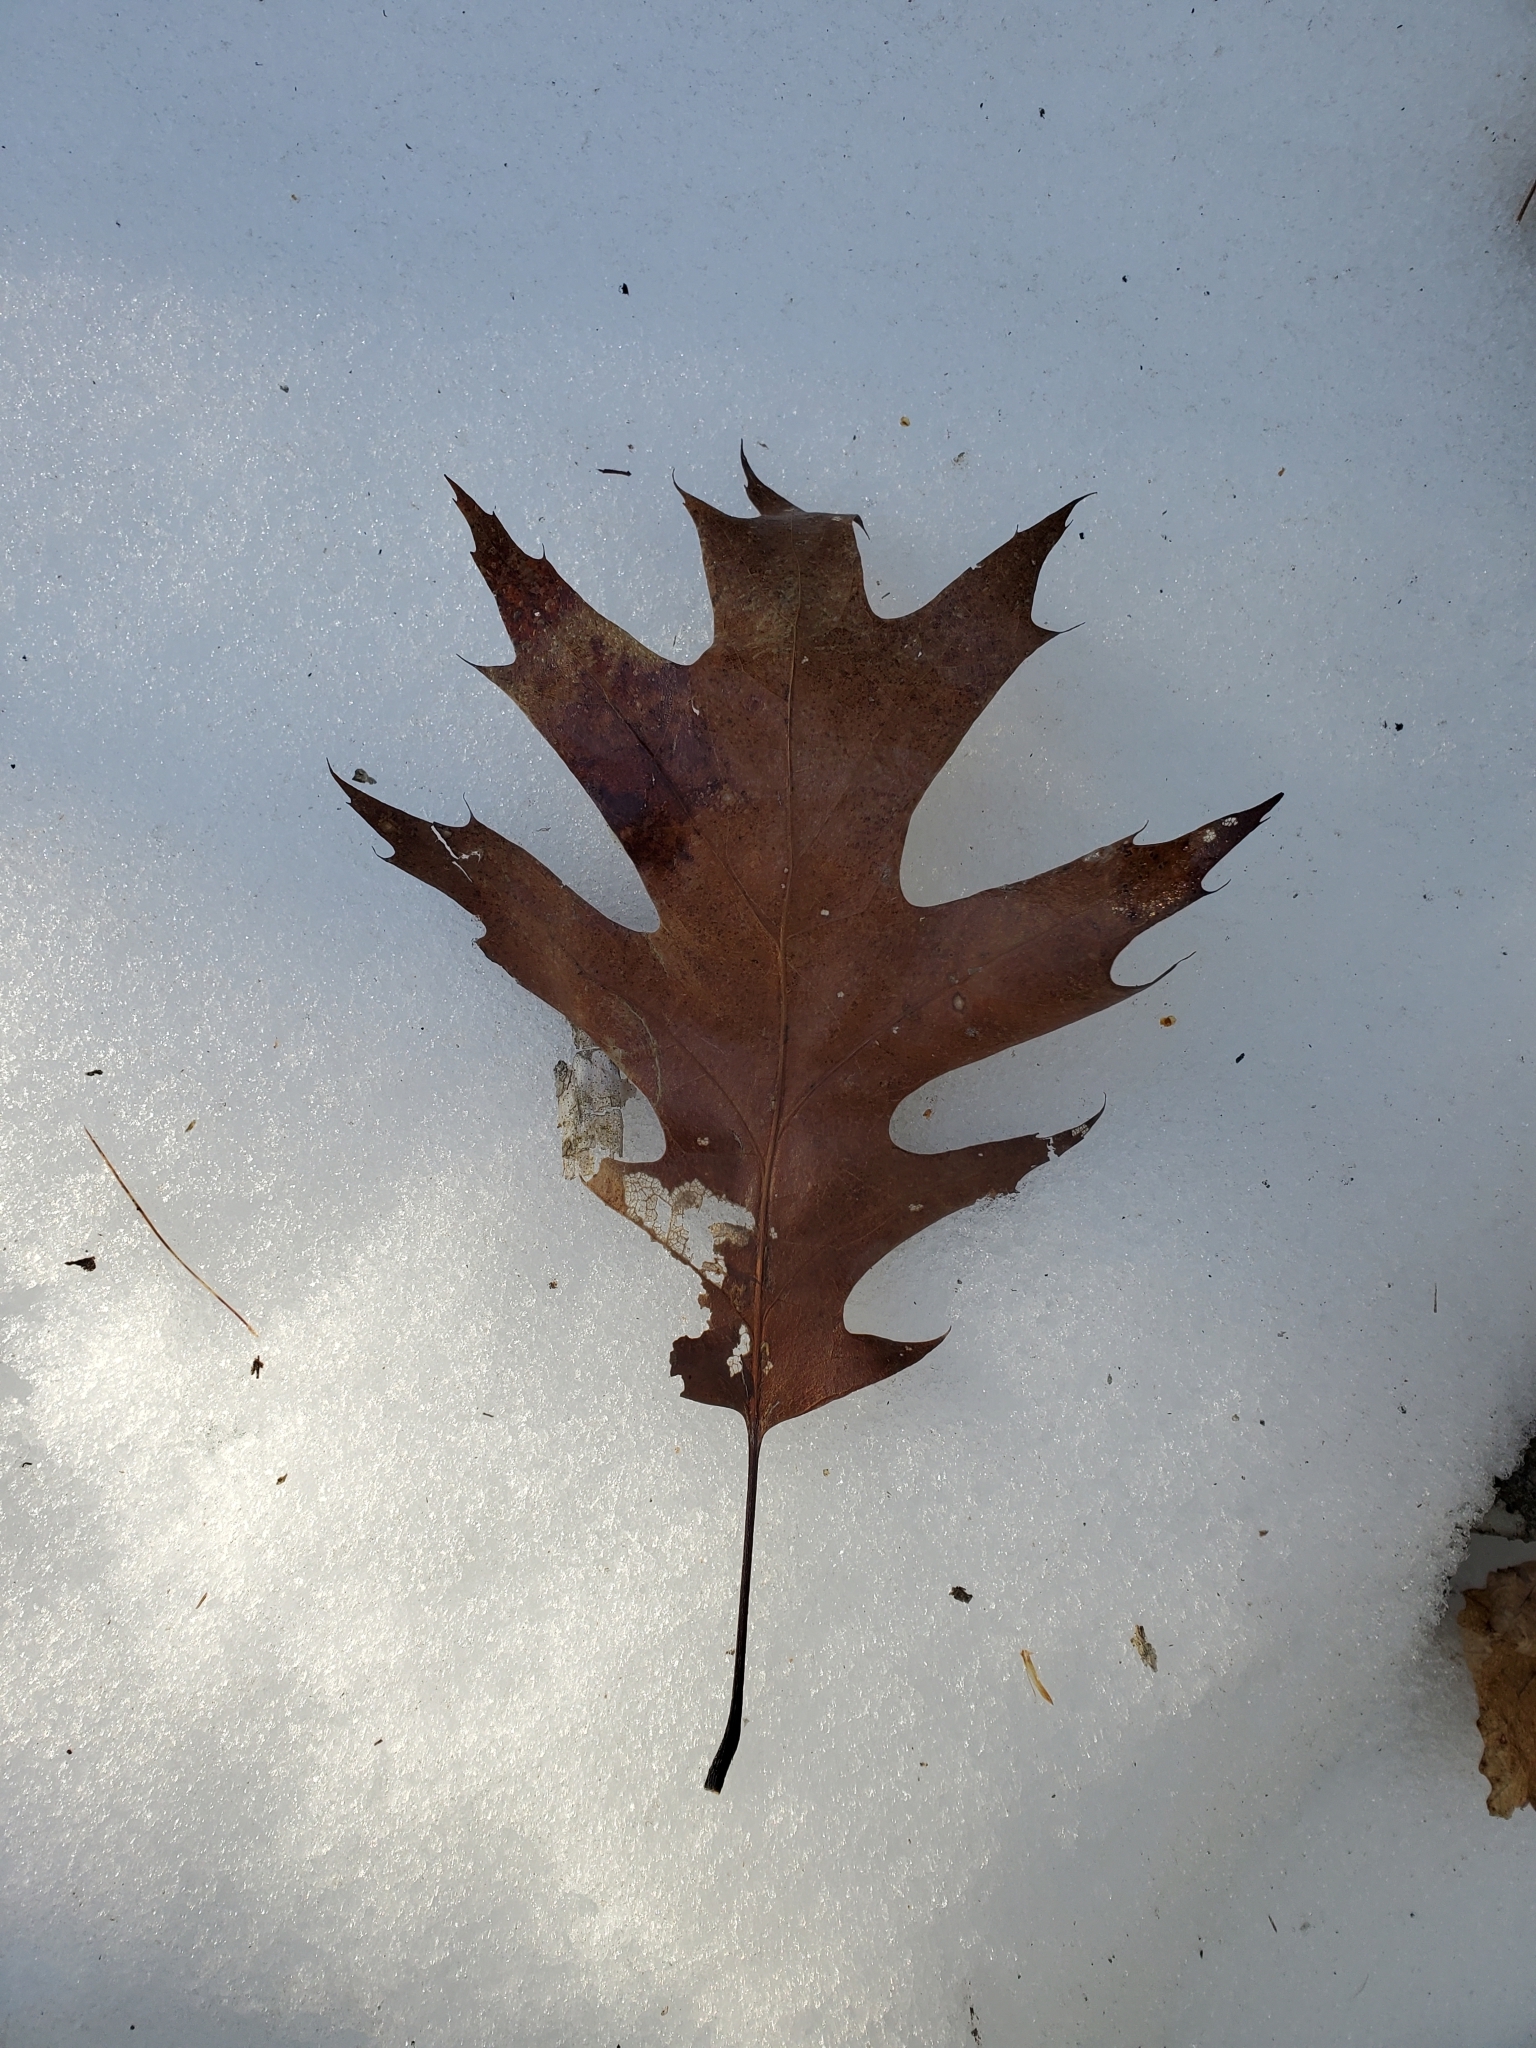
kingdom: Plantae
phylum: Tracheophyta
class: Magnoliopsida
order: Fagales
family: Fagaceae
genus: Quercus
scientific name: Quercus rubra
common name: Red oak
